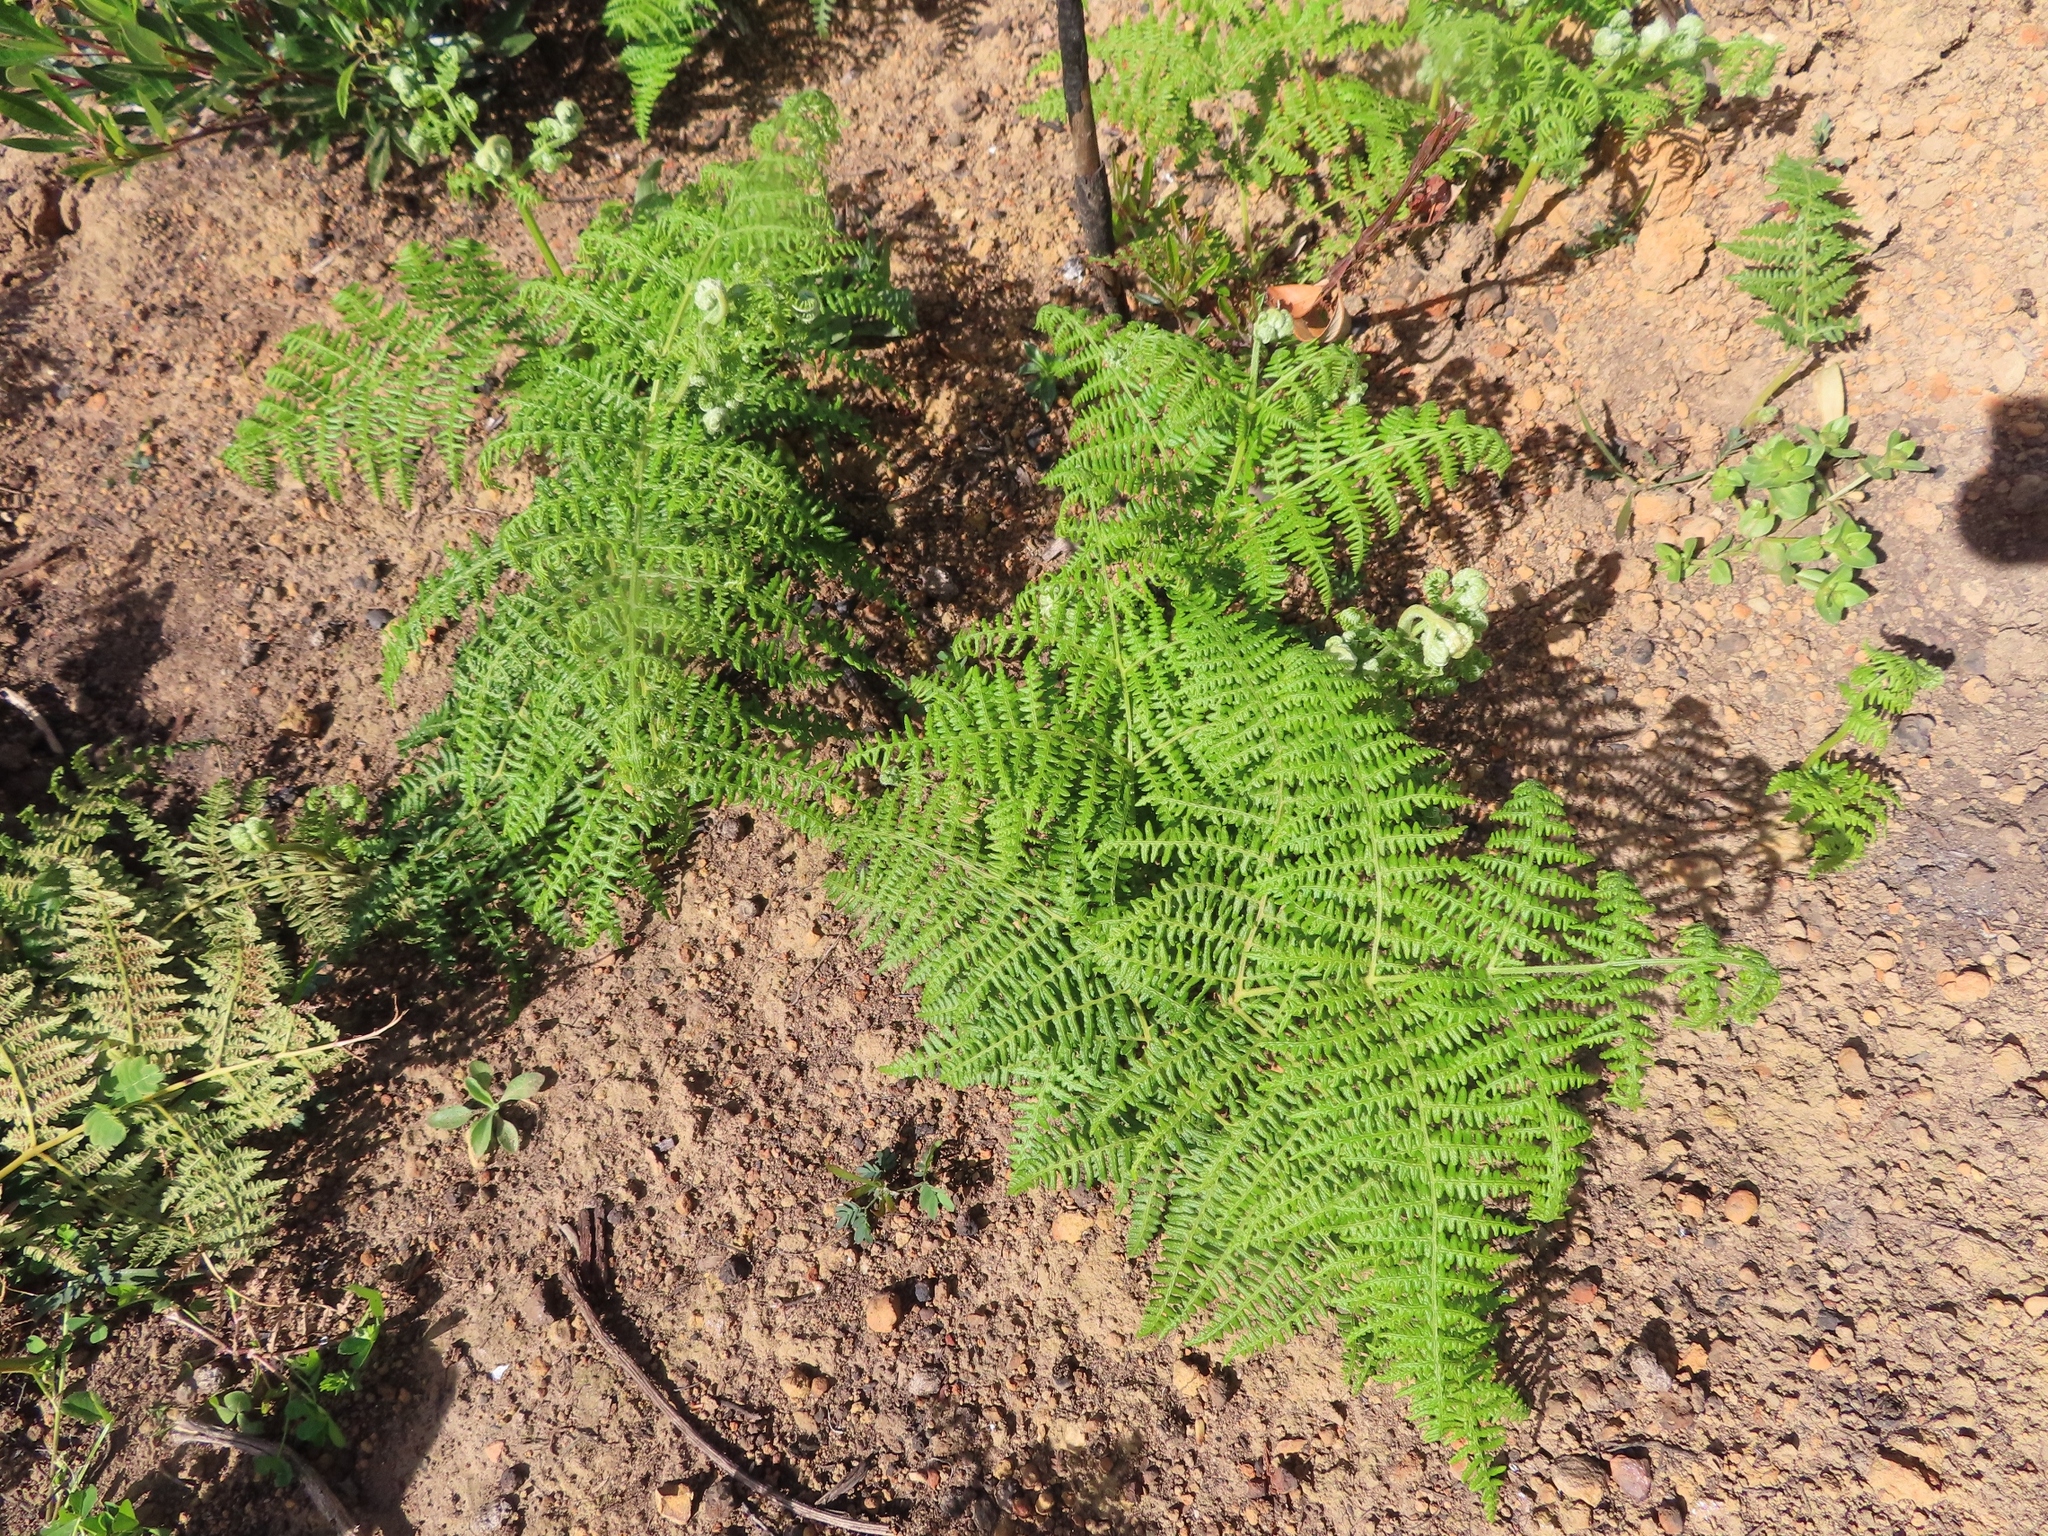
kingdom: Plantae
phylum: Tracheophyta
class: Polypodiopsida
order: Polypodiales
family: Dennstaedtiaceae
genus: Pteridium
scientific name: Pteridium aquilinum
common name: Bracken
